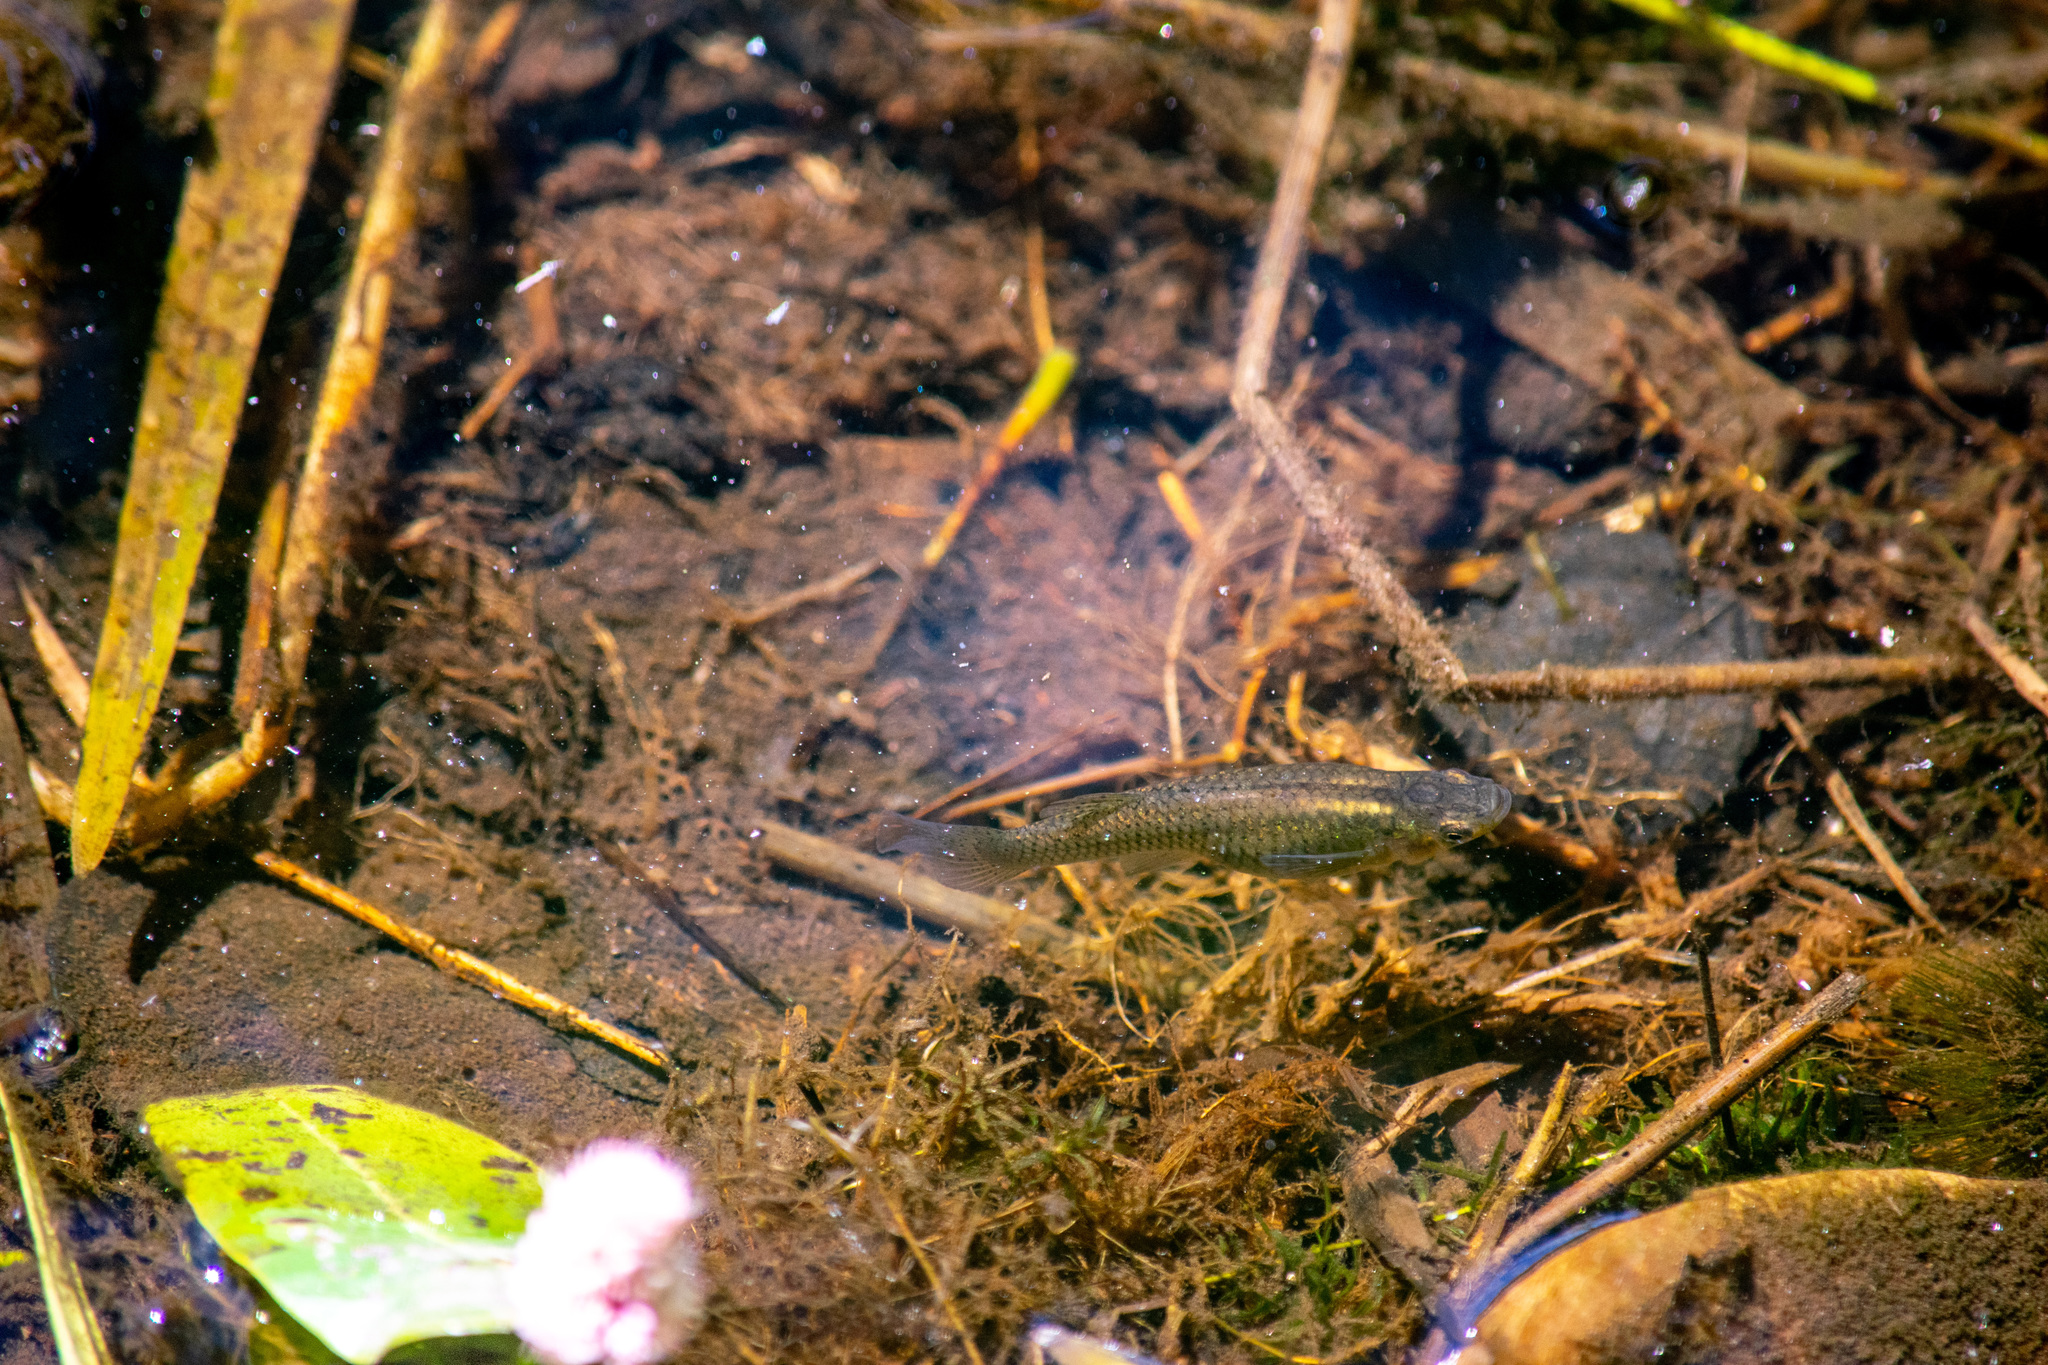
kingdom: Animalia
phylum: Chordata
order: Cyprinodontiformes
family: Poeciliidae
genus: Gambusia
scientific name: Gambusia affinis
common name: Mosquitofish
